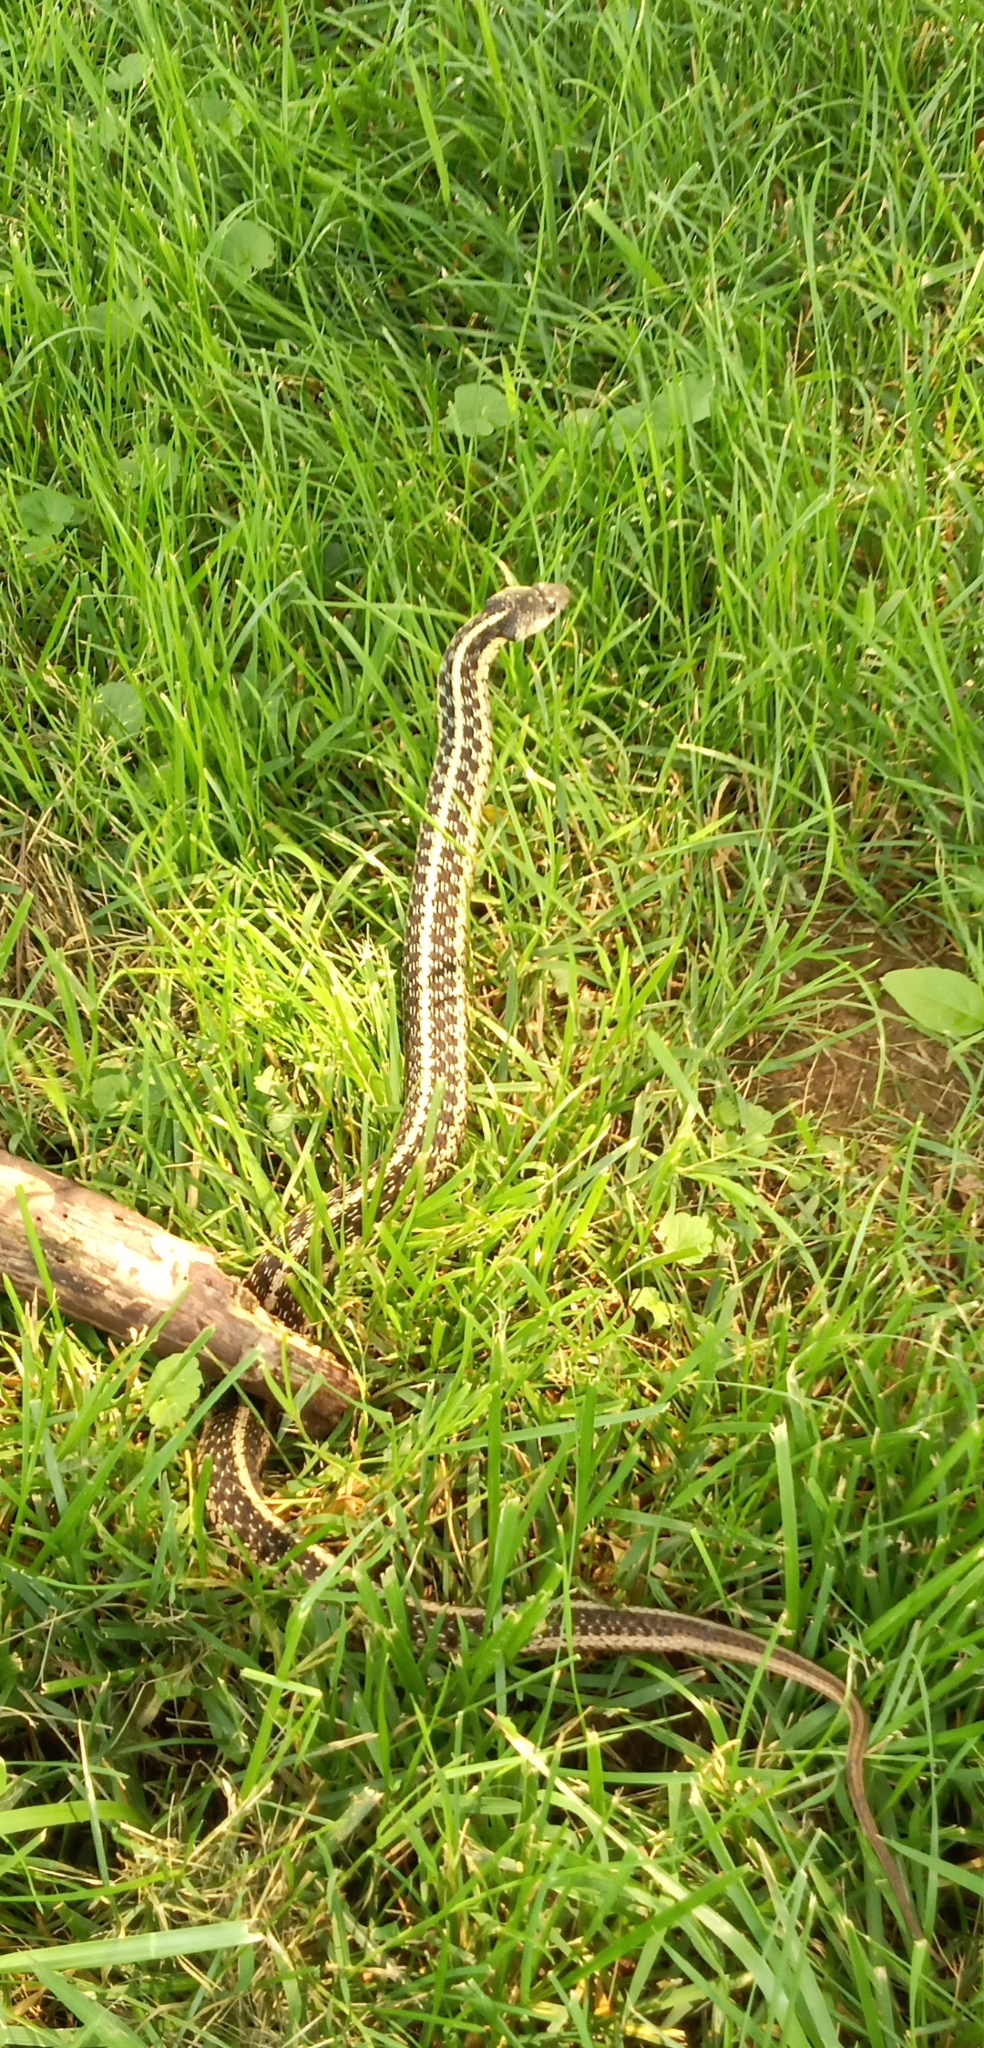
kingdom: Animalia
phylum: Chordata
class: Squamata
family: Colubridae
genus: Thamnophis
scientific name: Thamnophis sirtalis
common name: Common garter snake
